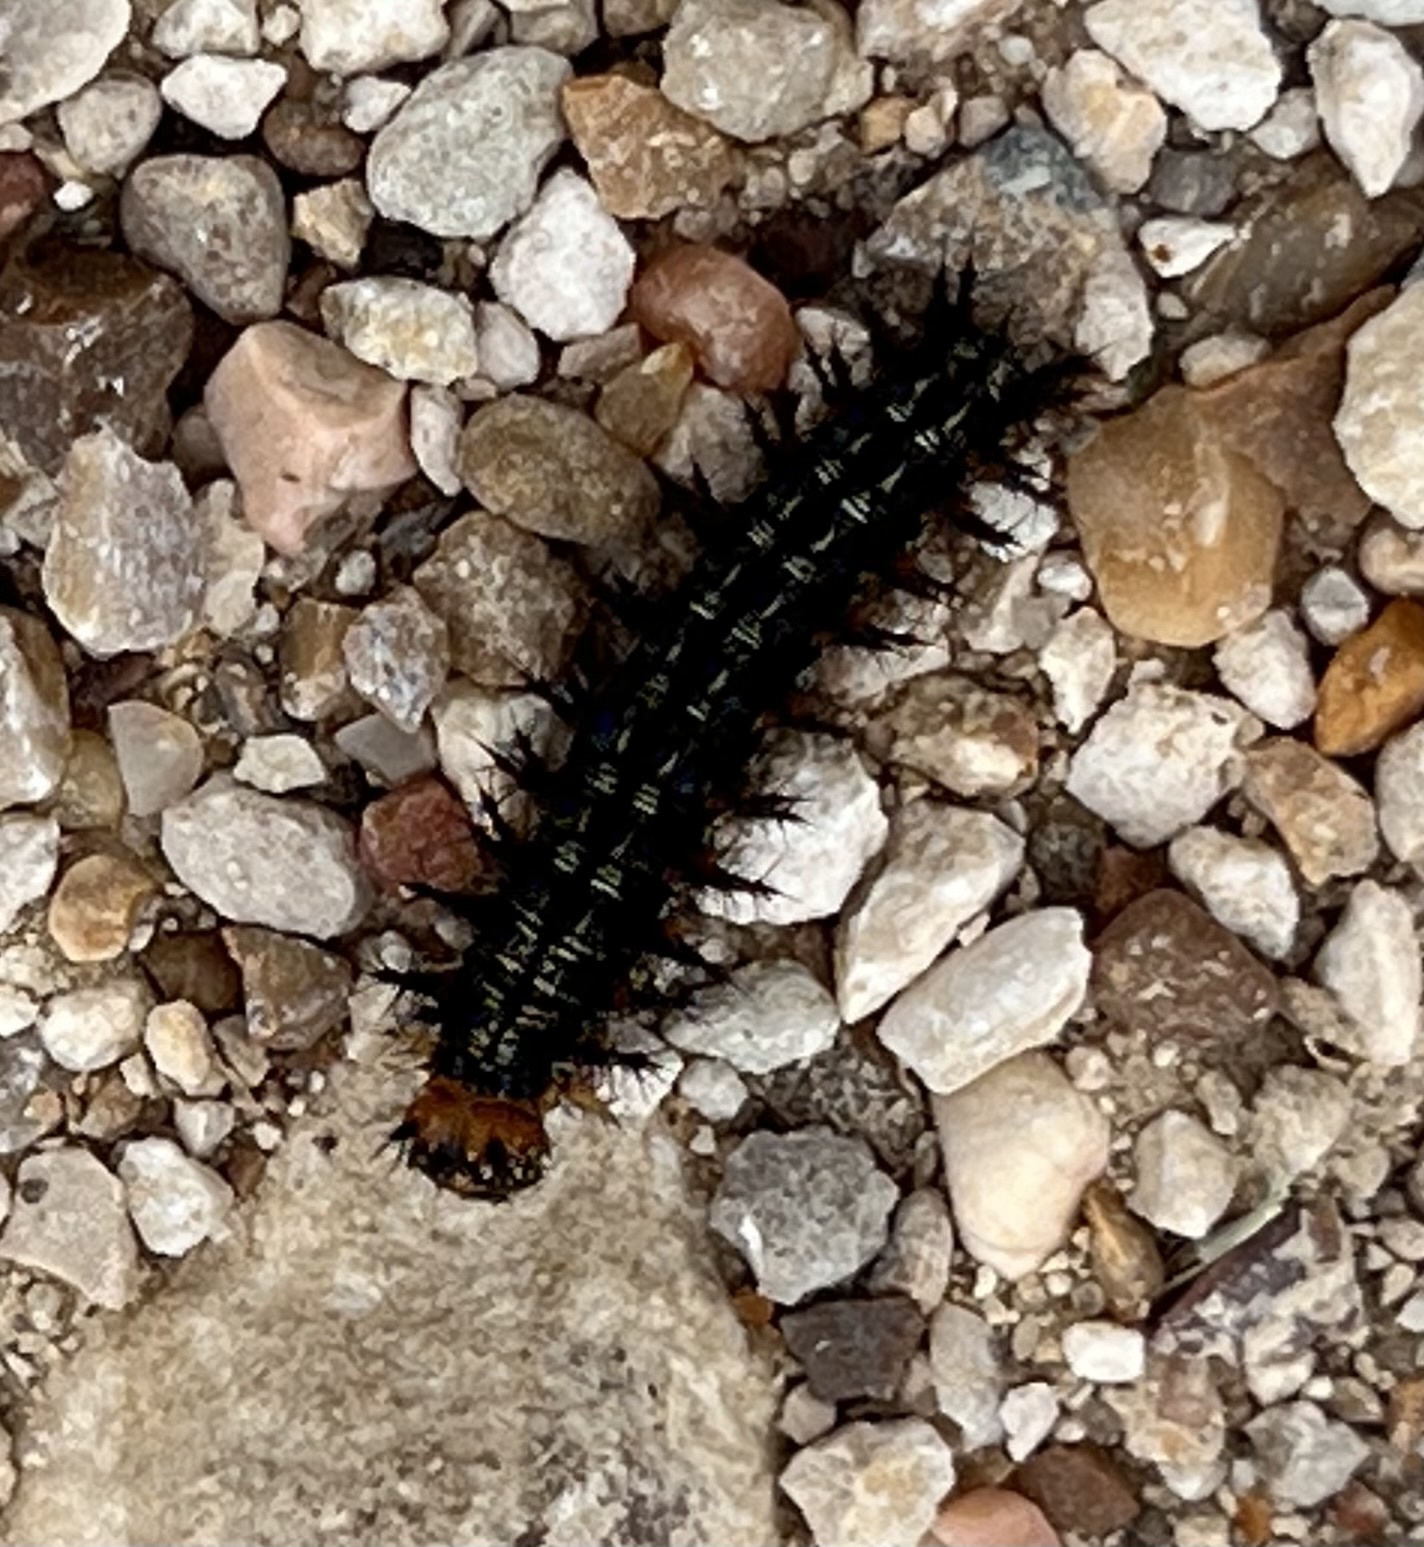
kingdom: Animalia
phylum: Arthropoda
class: Insecta
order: Lepidoptera
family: Nymphalidae
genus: Junonia
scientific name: Junonia coenia
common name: Common buckeye
